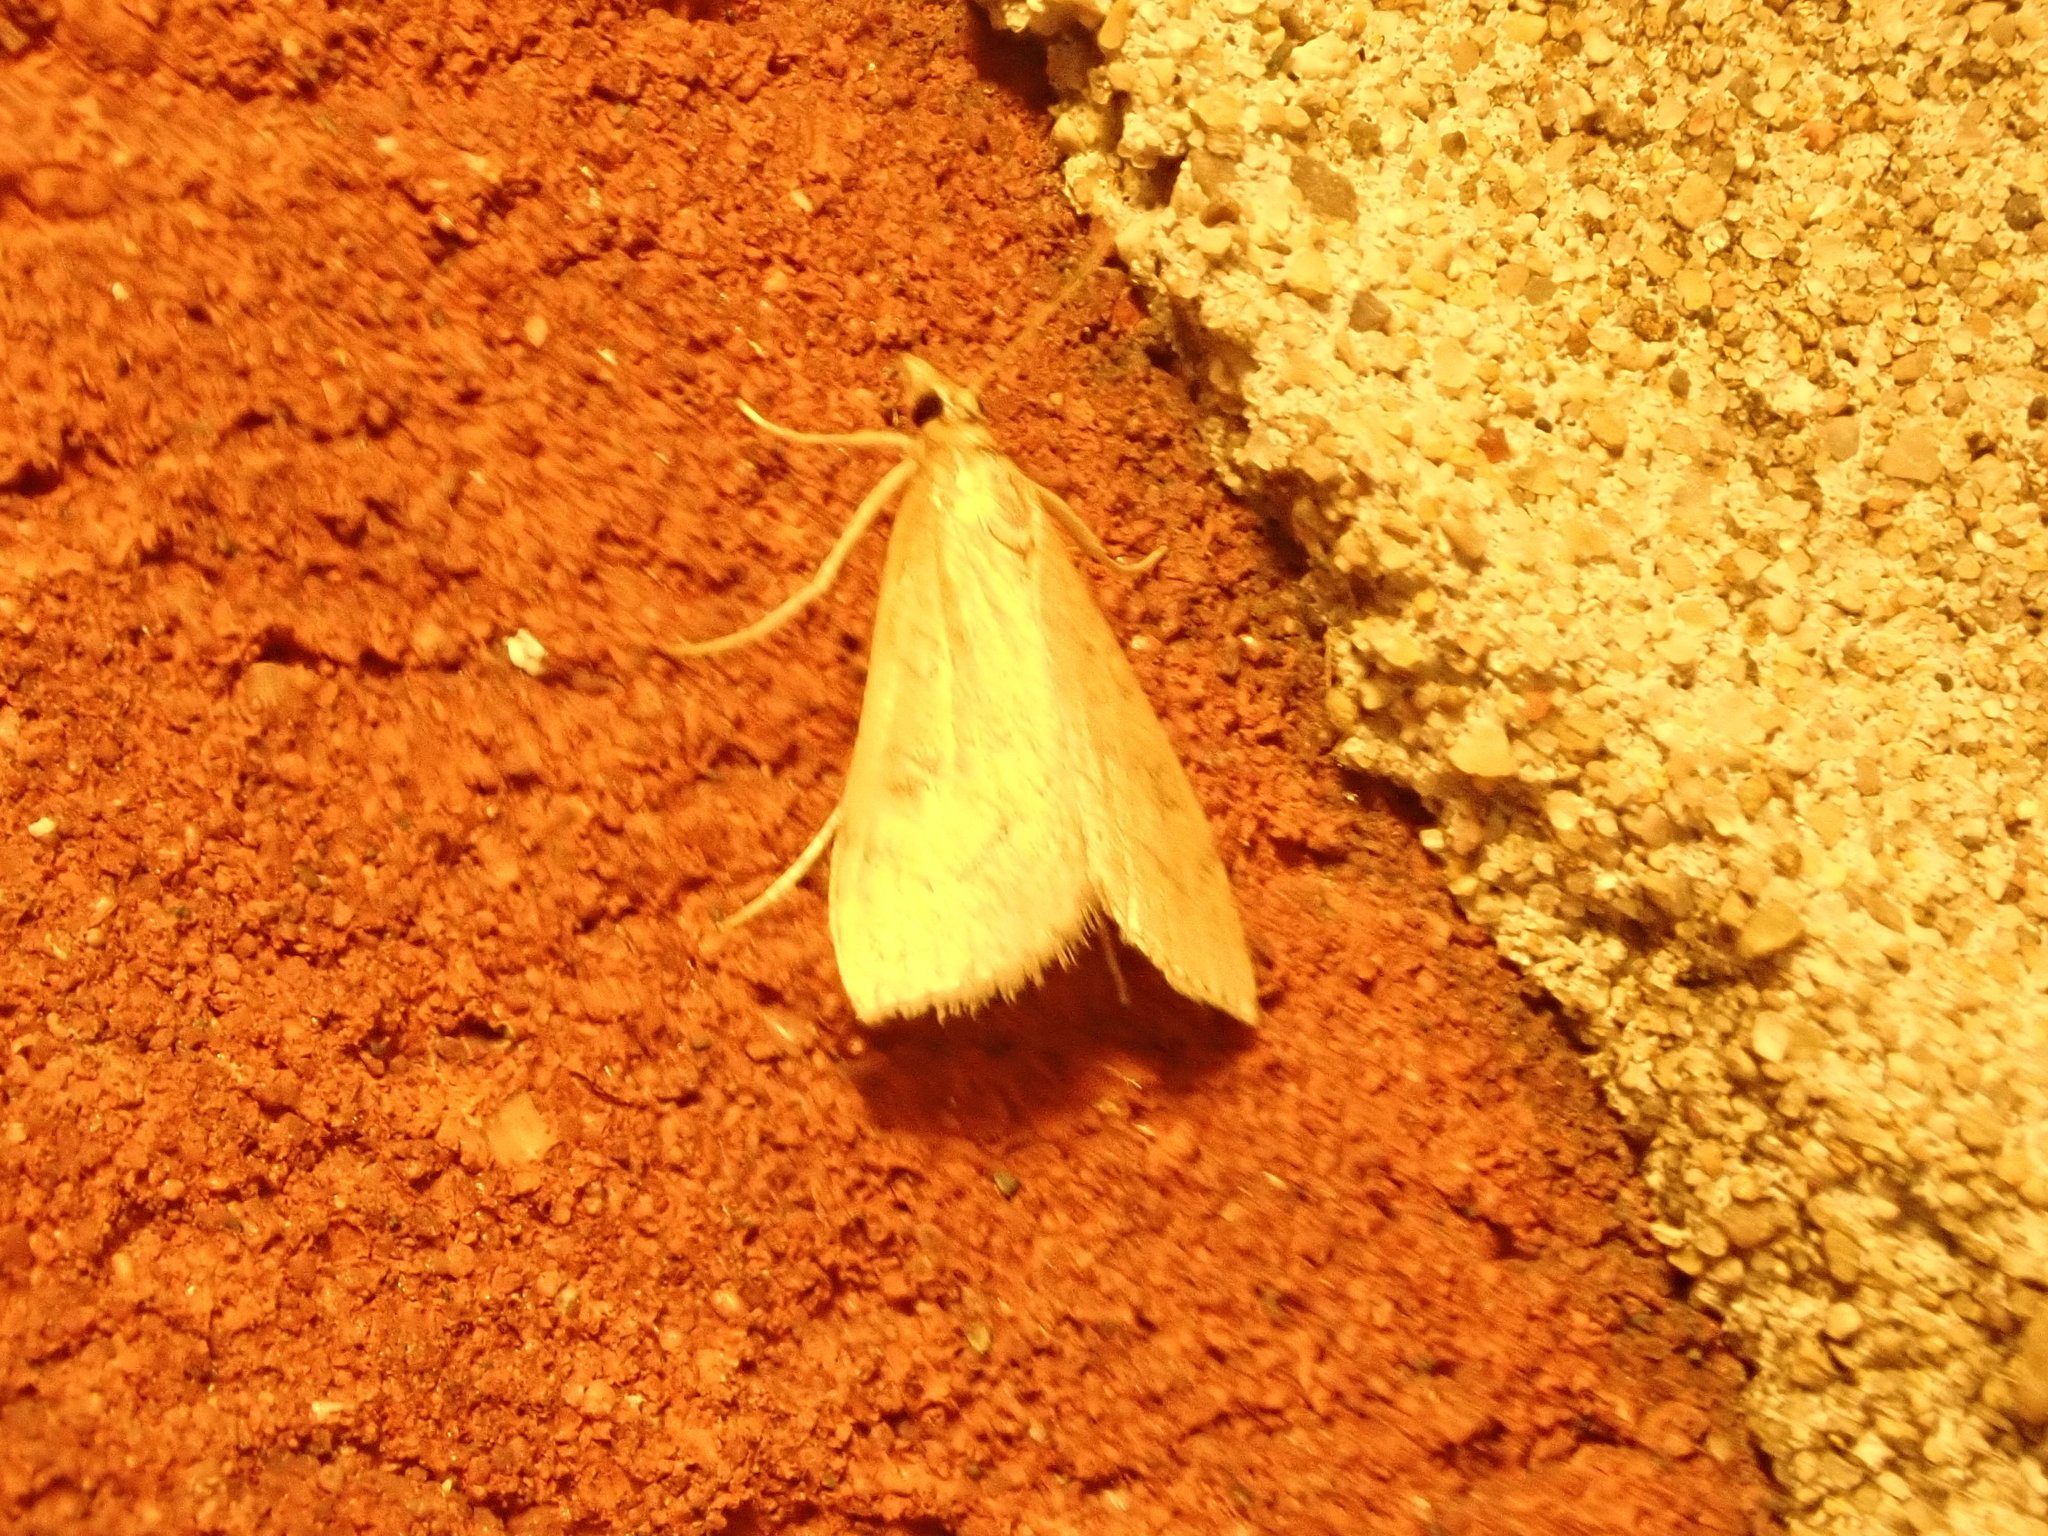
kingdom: Animalia
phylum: Arthropoda
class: Insecta
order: Lepidoptera
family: Crambidae
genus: Udea
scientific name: Udea rubigalis
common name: Celery leaftier moth
